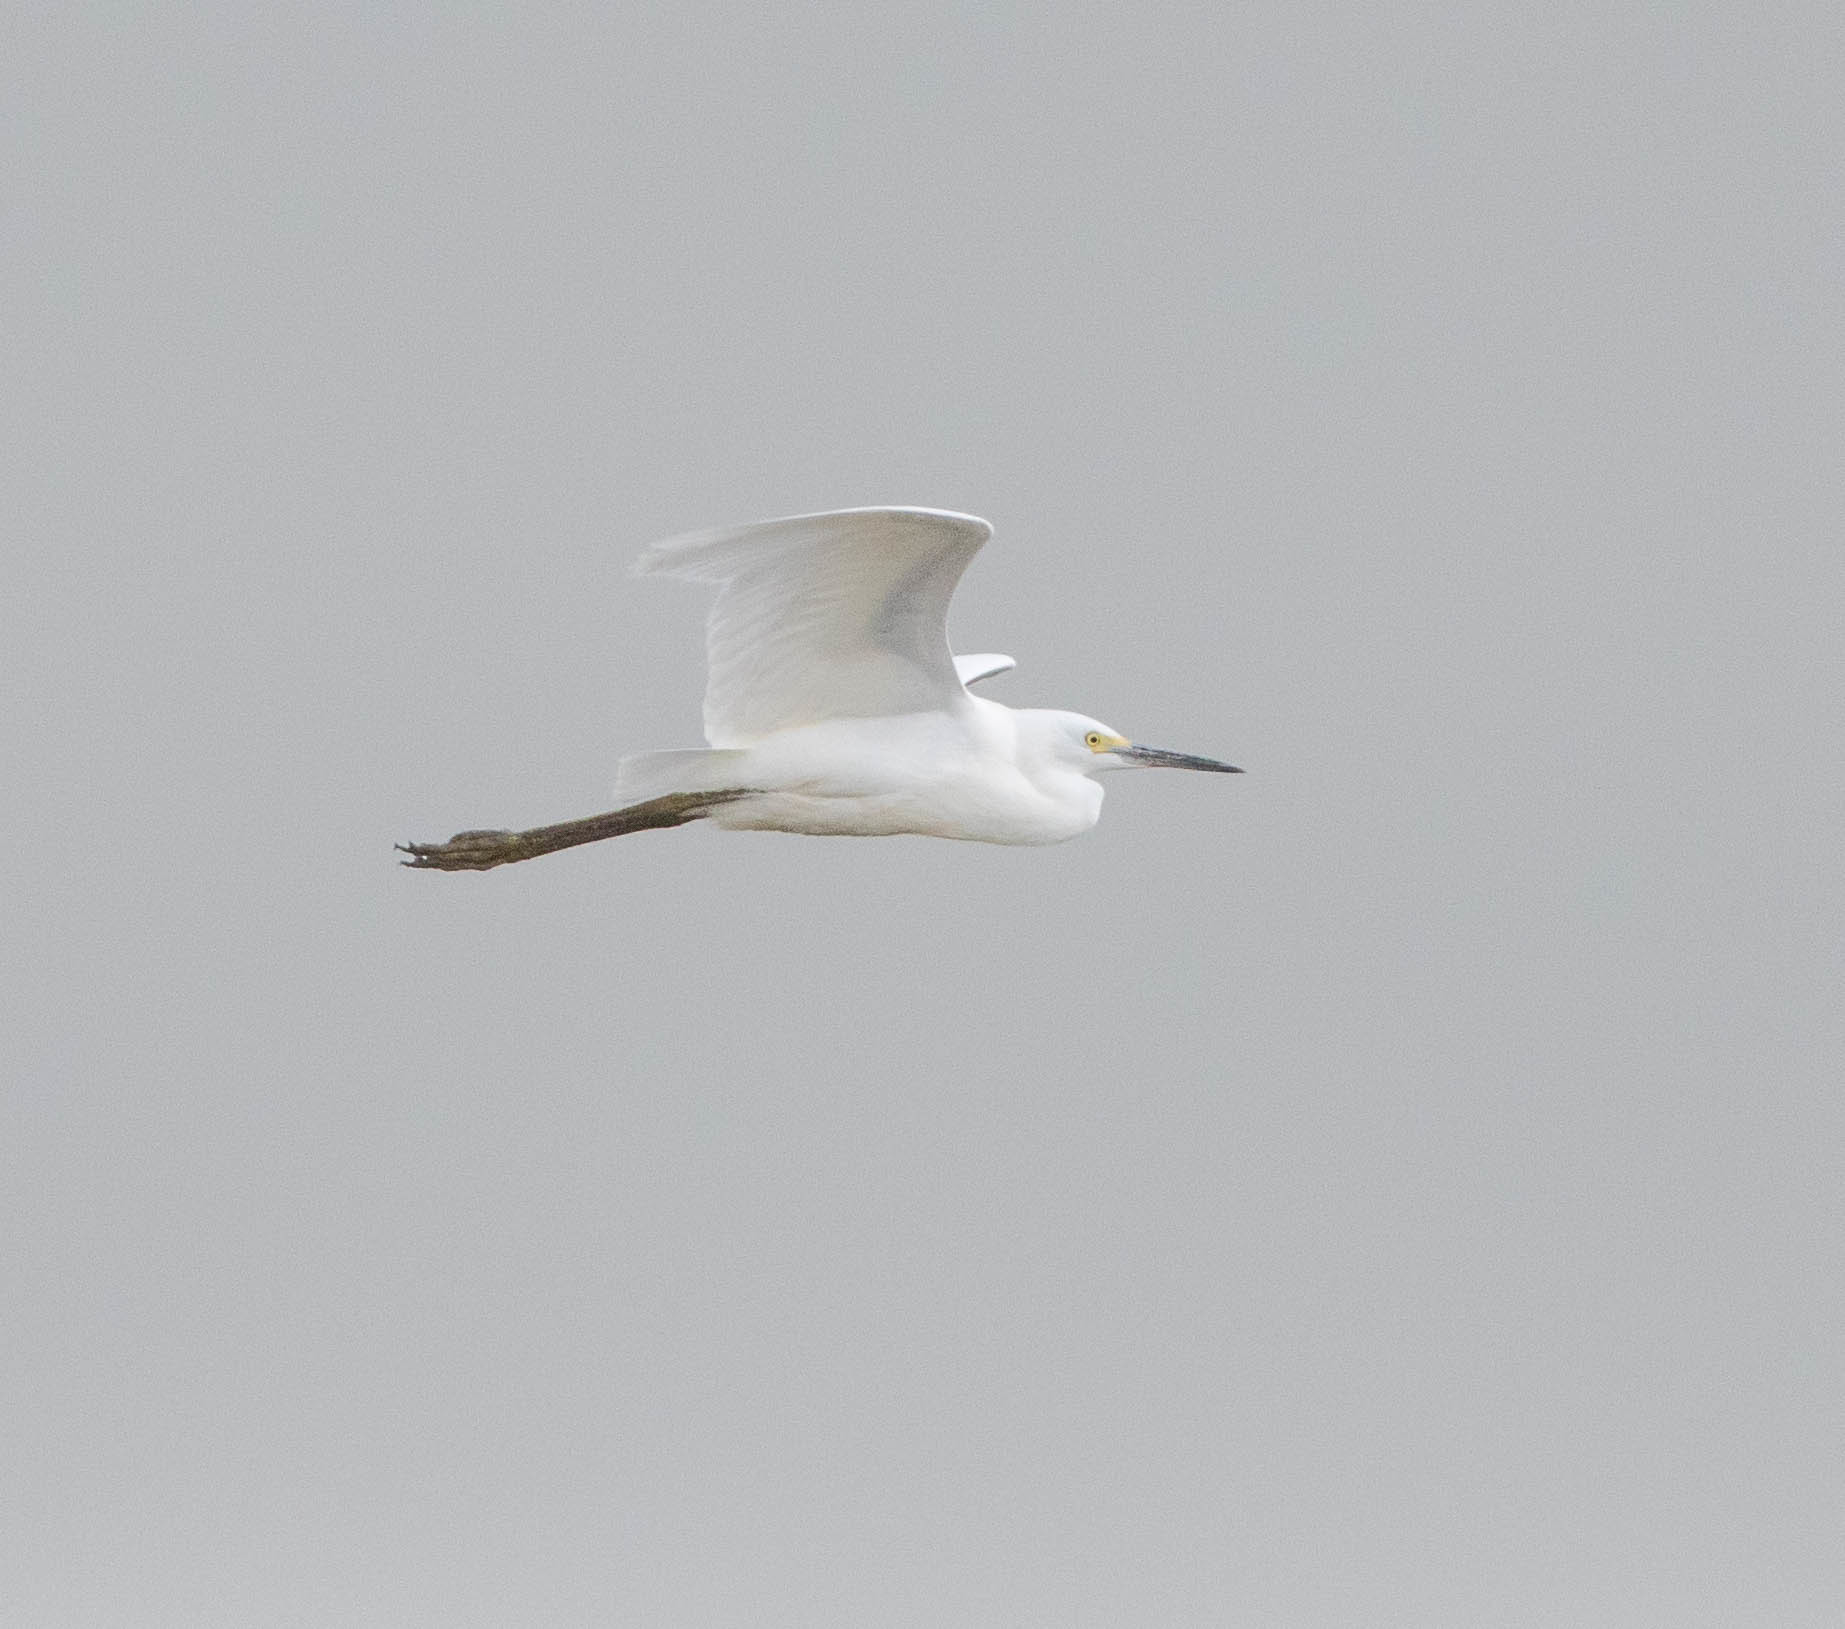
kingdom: Animalia
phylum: Chordata
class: Aves
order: Pelecaniformes
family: Ardeidae
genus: Egretta
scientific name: Egretta thula
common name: Snowy egret
